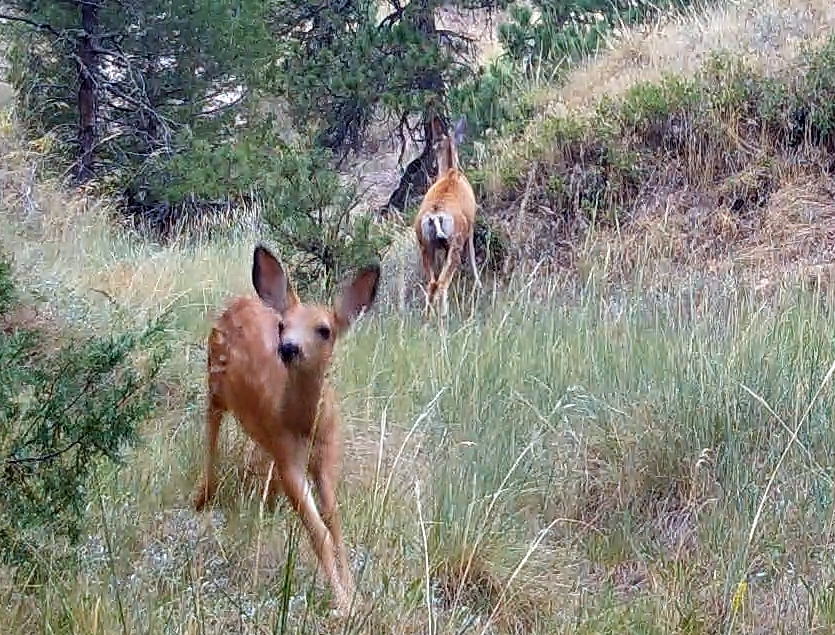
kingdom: Animalia
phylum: Chordata
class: Mammalia
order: Artiodactyla
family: Cervidae
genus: Odocoileus
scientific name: Odocoileus hemionus
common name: Mule deer
